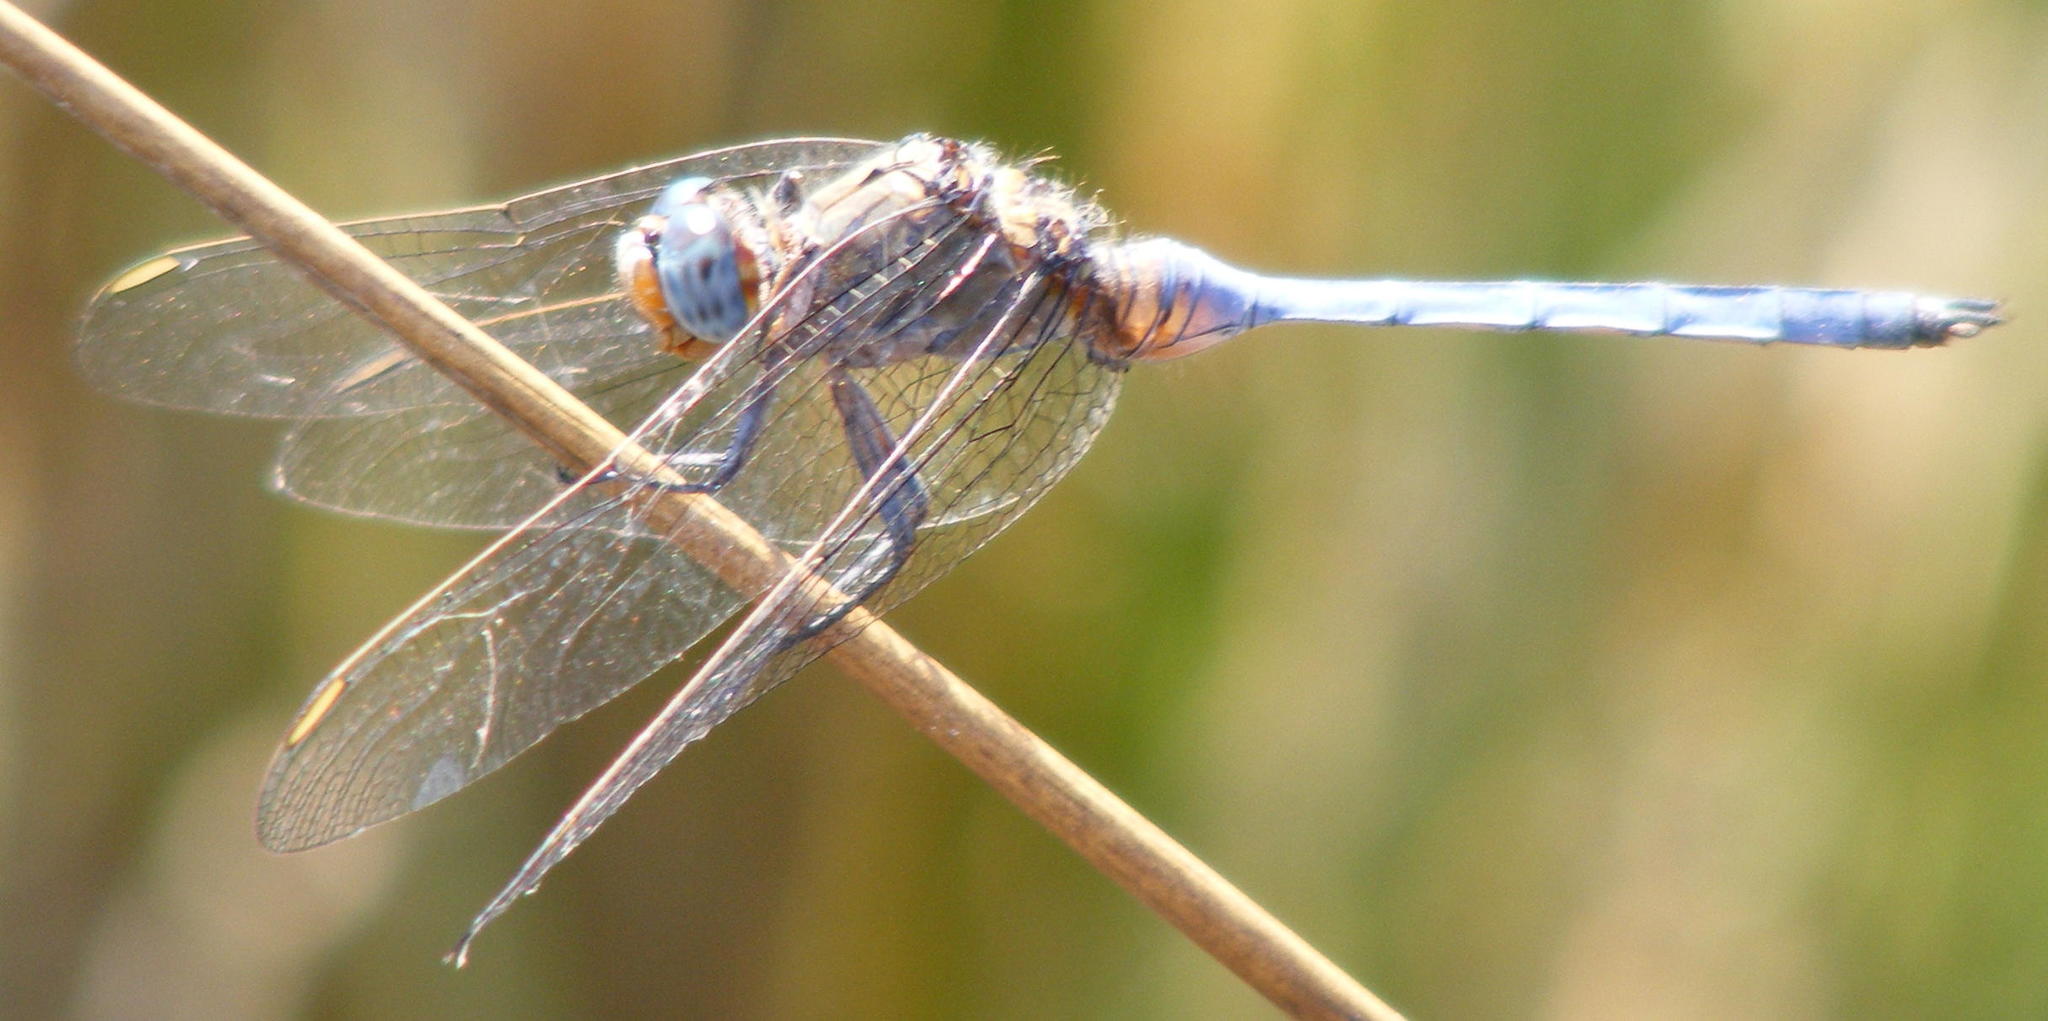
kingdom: Animalia
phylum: Arthropoda
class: Insecta
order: Odonata
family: Libellulidae
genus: Orthetrum
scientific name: Orthetrum abbotti
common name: Abbott's skimmer
